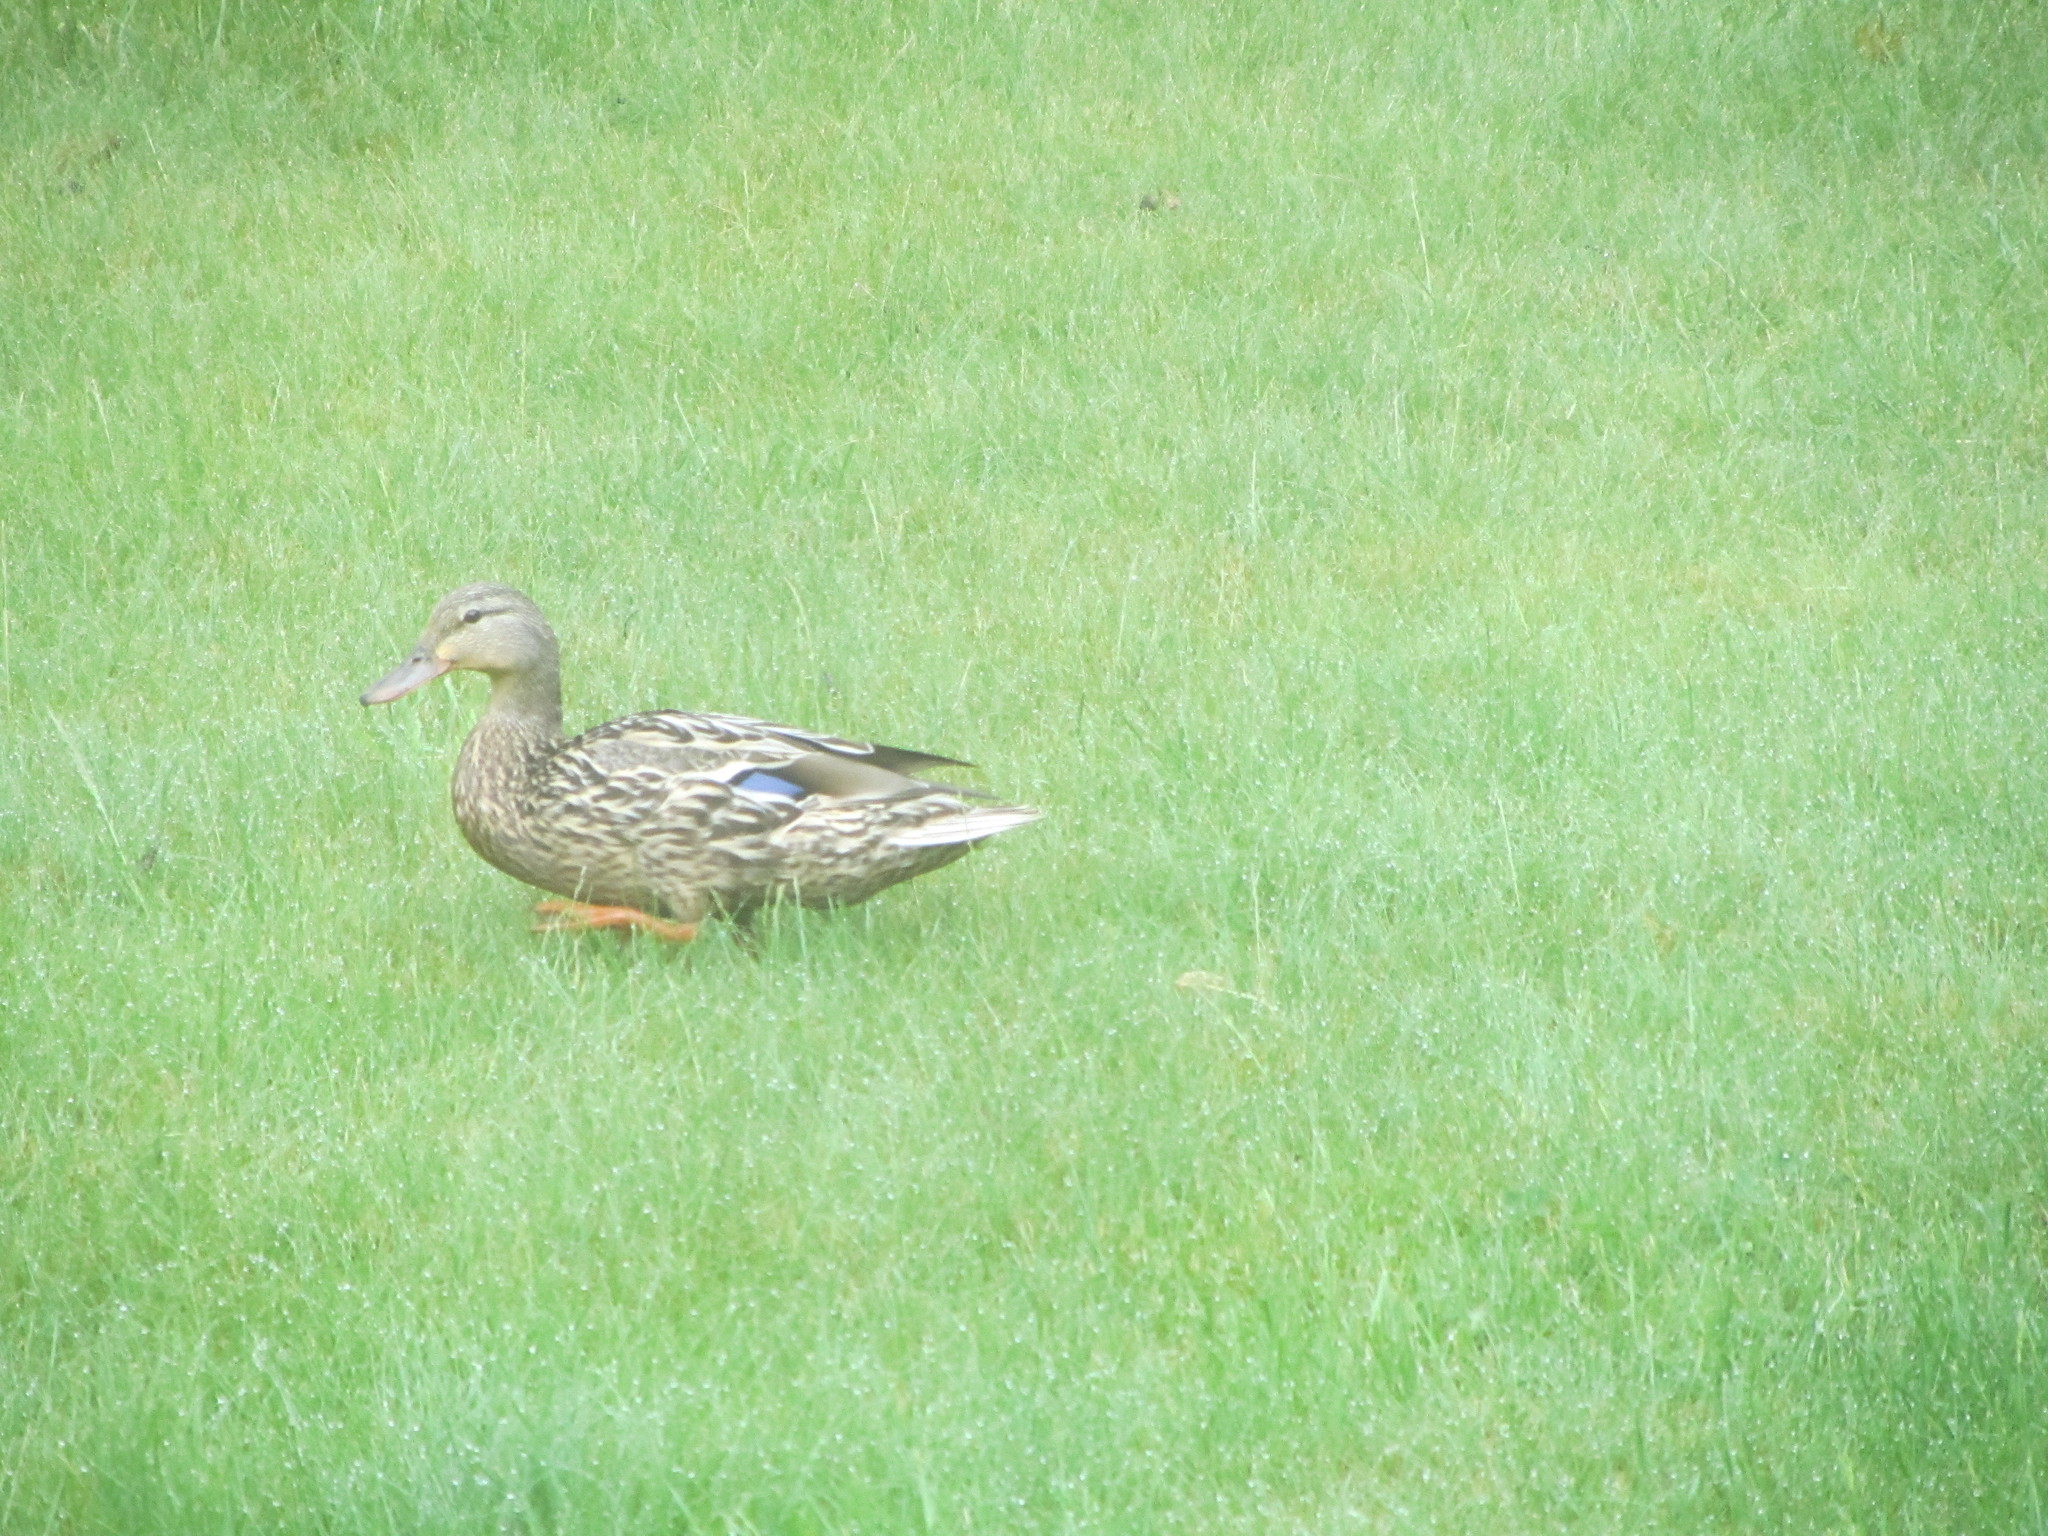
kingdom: Animalia
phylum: Chordata
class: Aves
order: Anseriformes
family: Anatidae
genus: Anas
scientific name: Anas platyrhynchos
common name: Mallard
